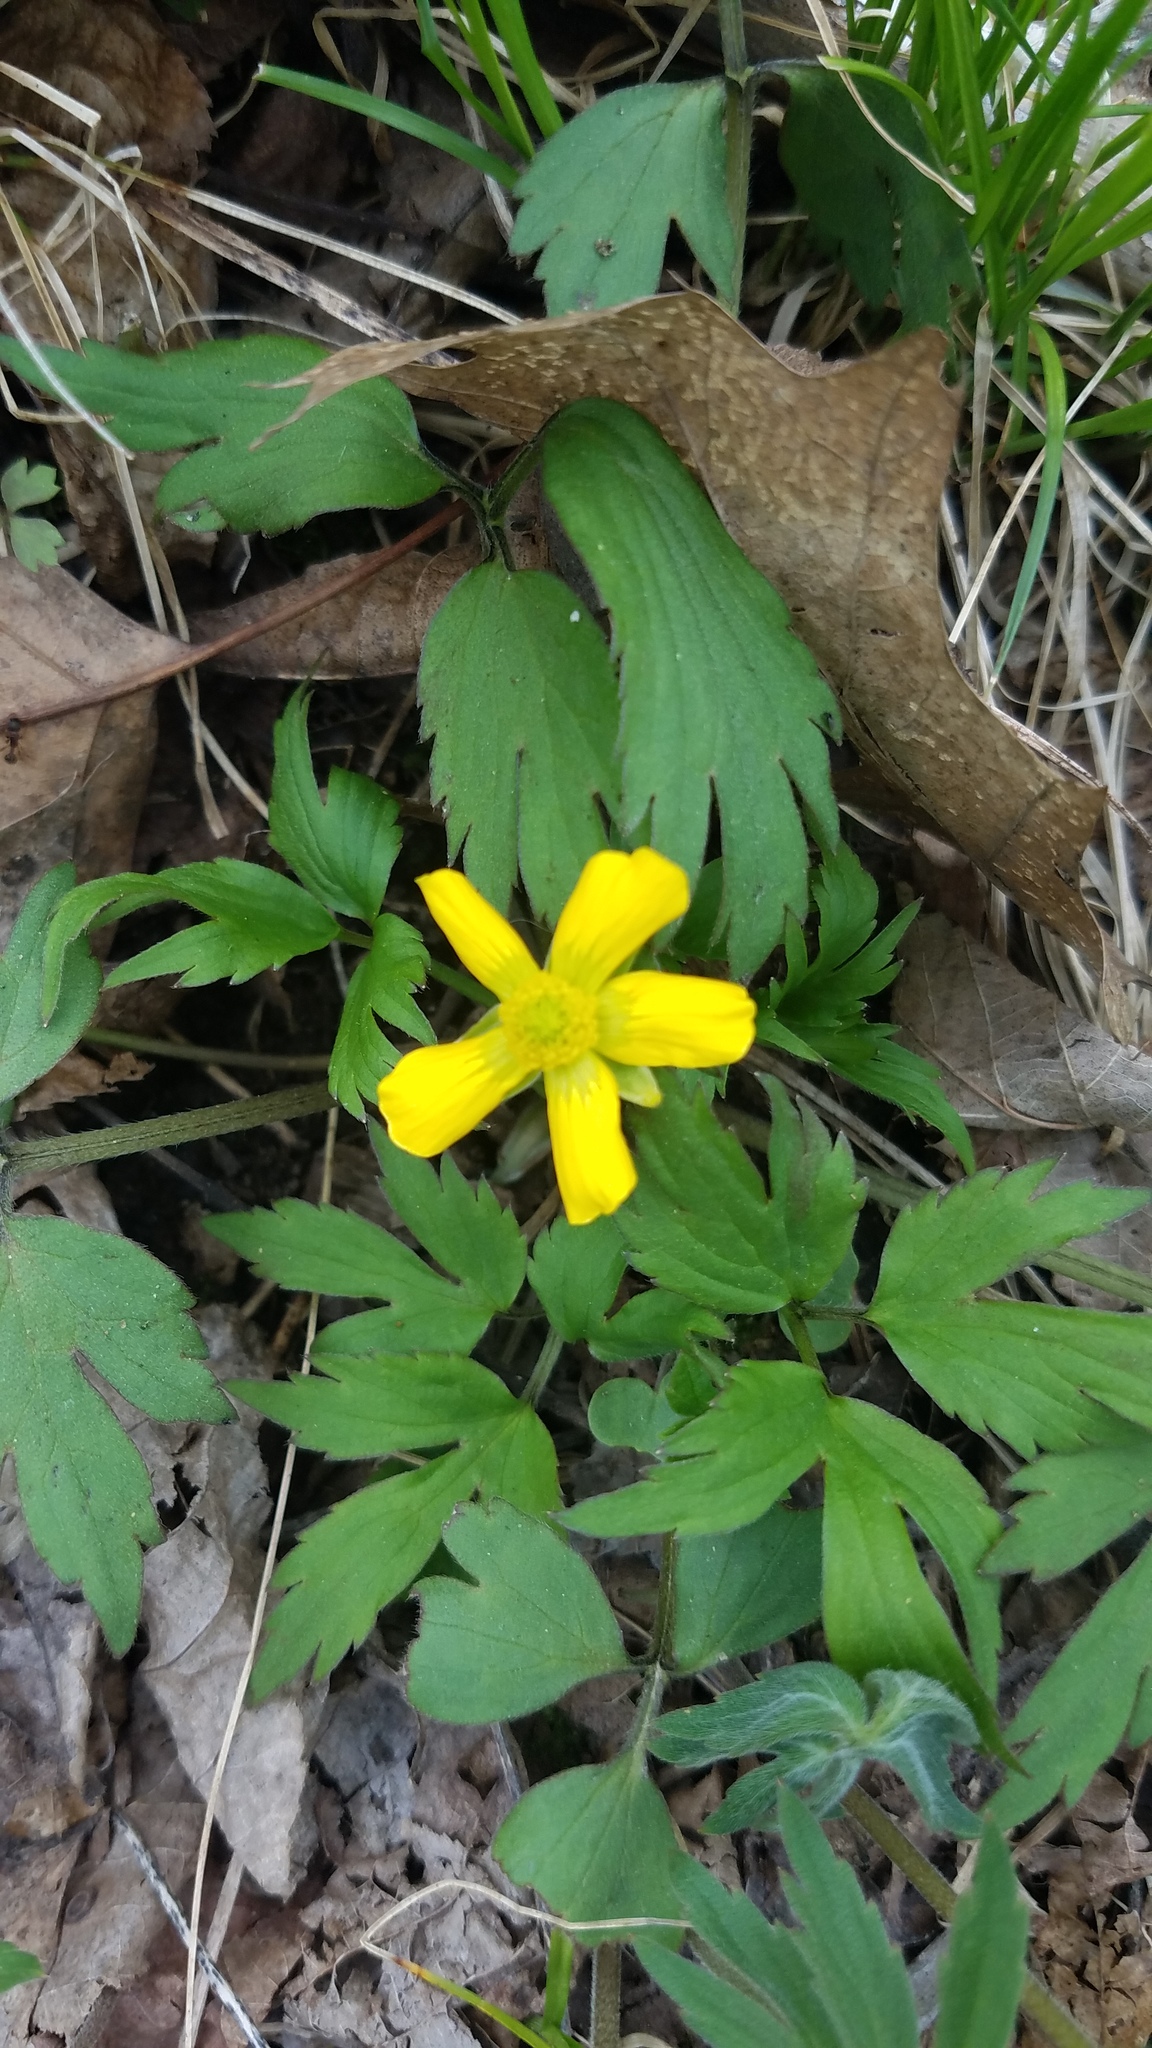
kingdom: Plantae
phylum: Tracheophyta
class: Magnoliopsida
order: Ranunculales
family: Ranunculaceae
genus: Ranunculus
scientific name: Ranunculus hispidus
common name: Bristly buttercup
